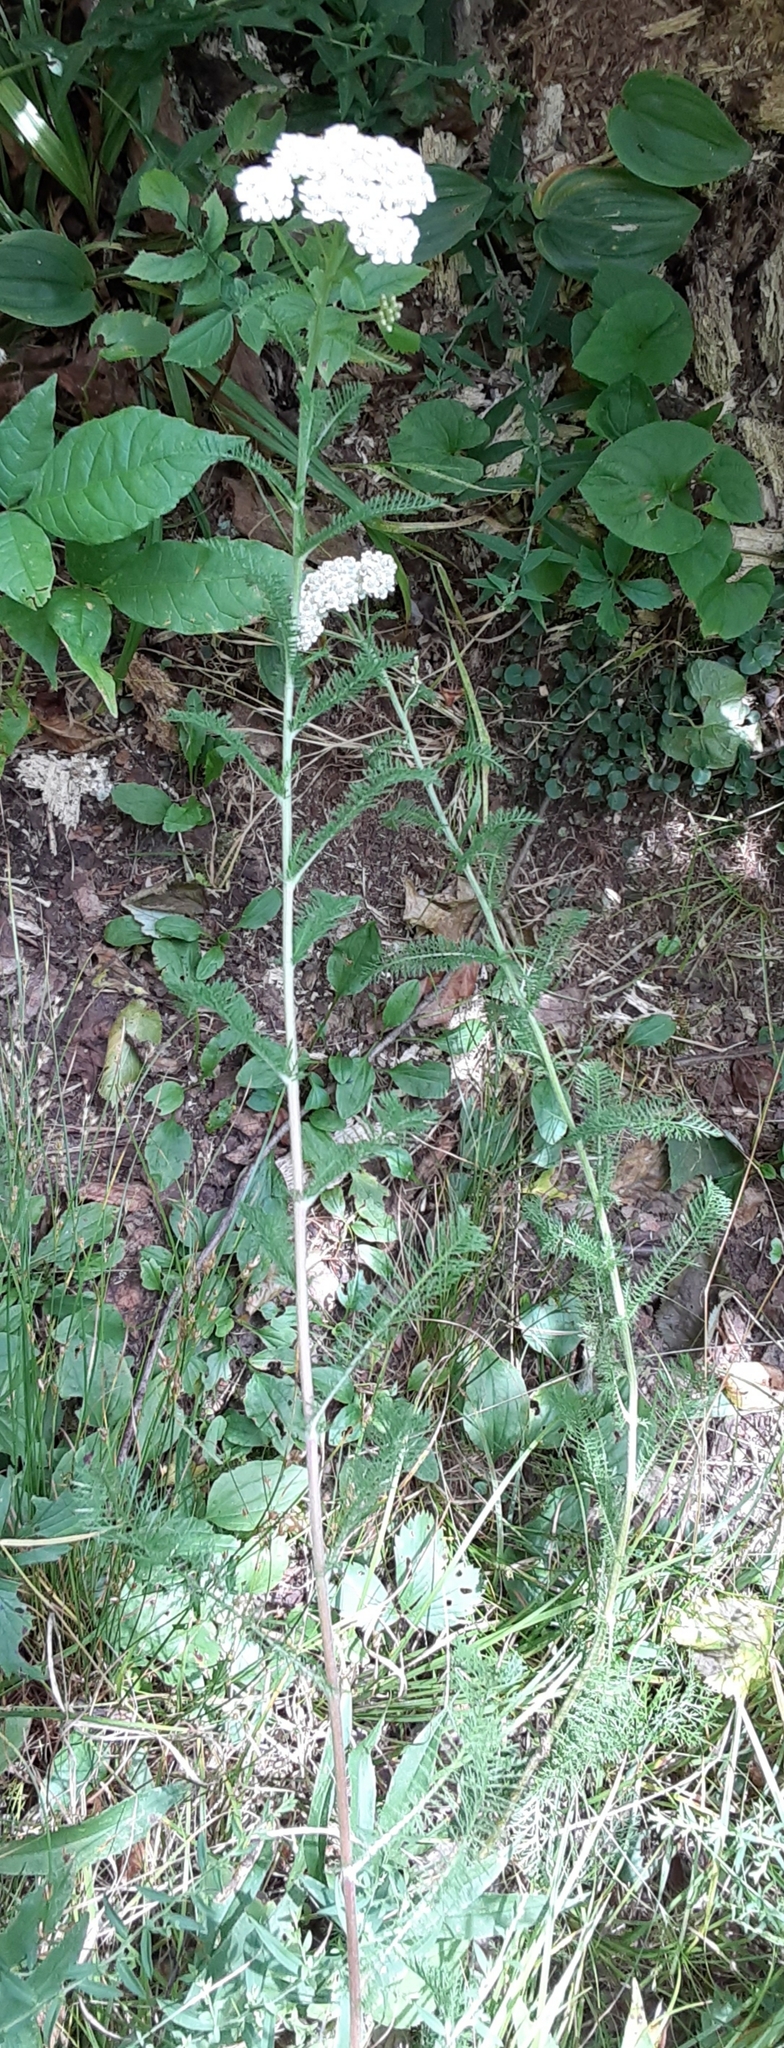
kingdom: Plantae
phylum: Tracheophyta
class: Magnoliopsida
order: Asterales
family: Asteraceae
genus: Achillea
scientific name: Achillea millefolium
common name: Yarrow
